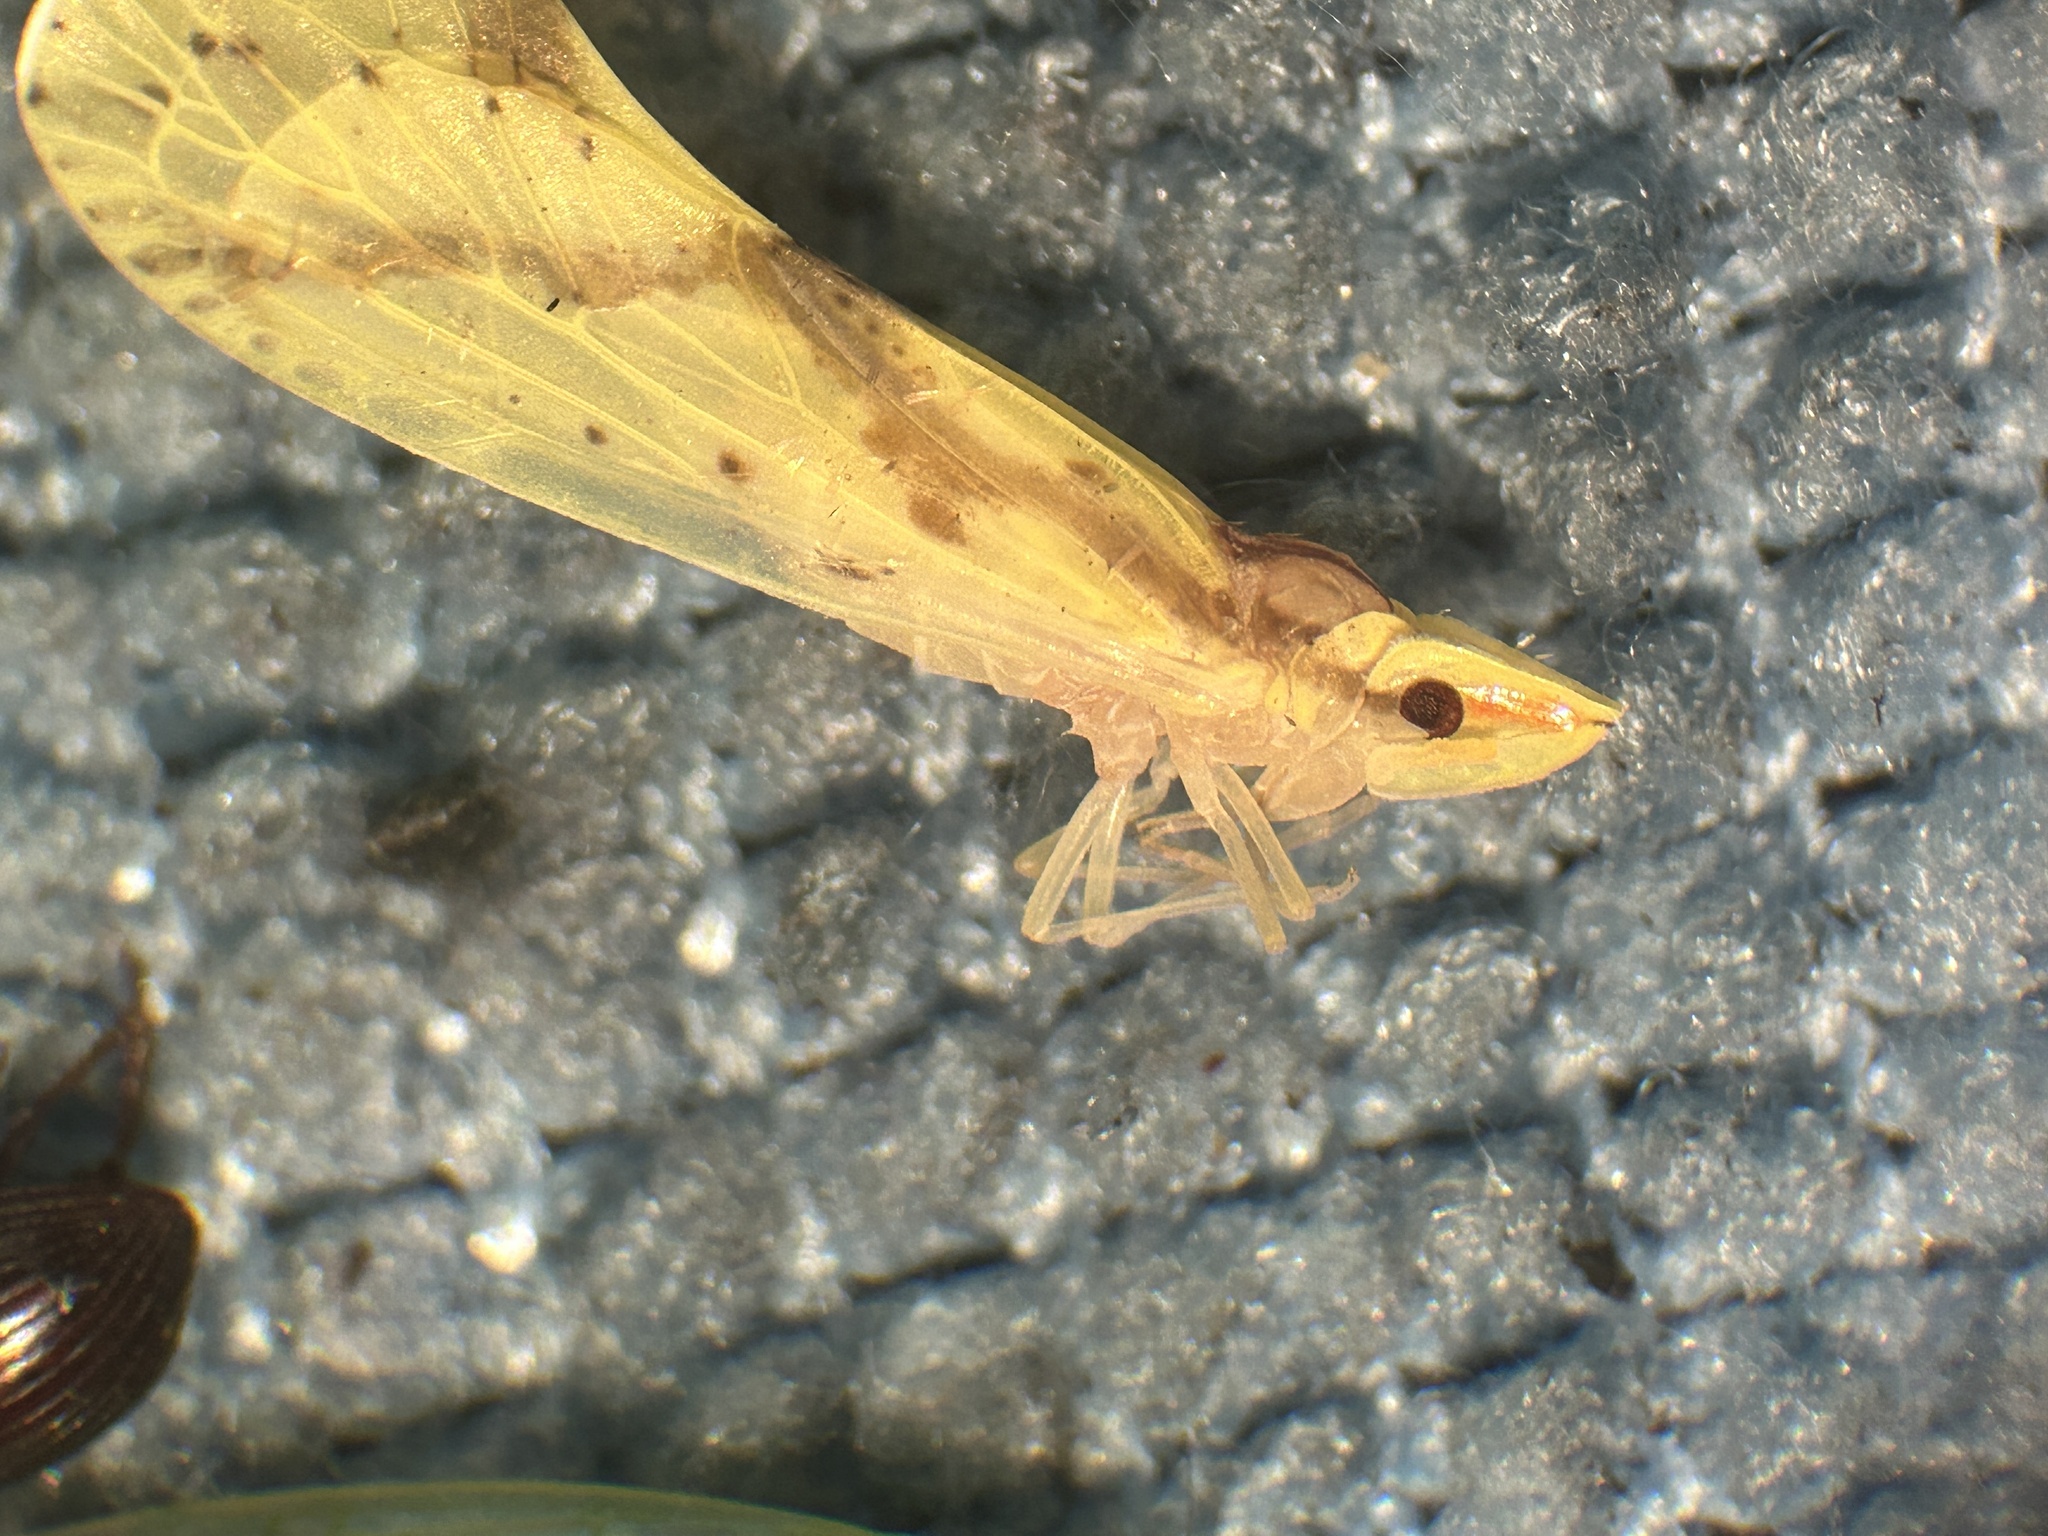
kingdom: Animalia
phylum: Arthropoda
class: Insecta
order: Hemiptera
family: Derbidae
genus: Otiocerus
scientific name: Otiocerus wolfii
